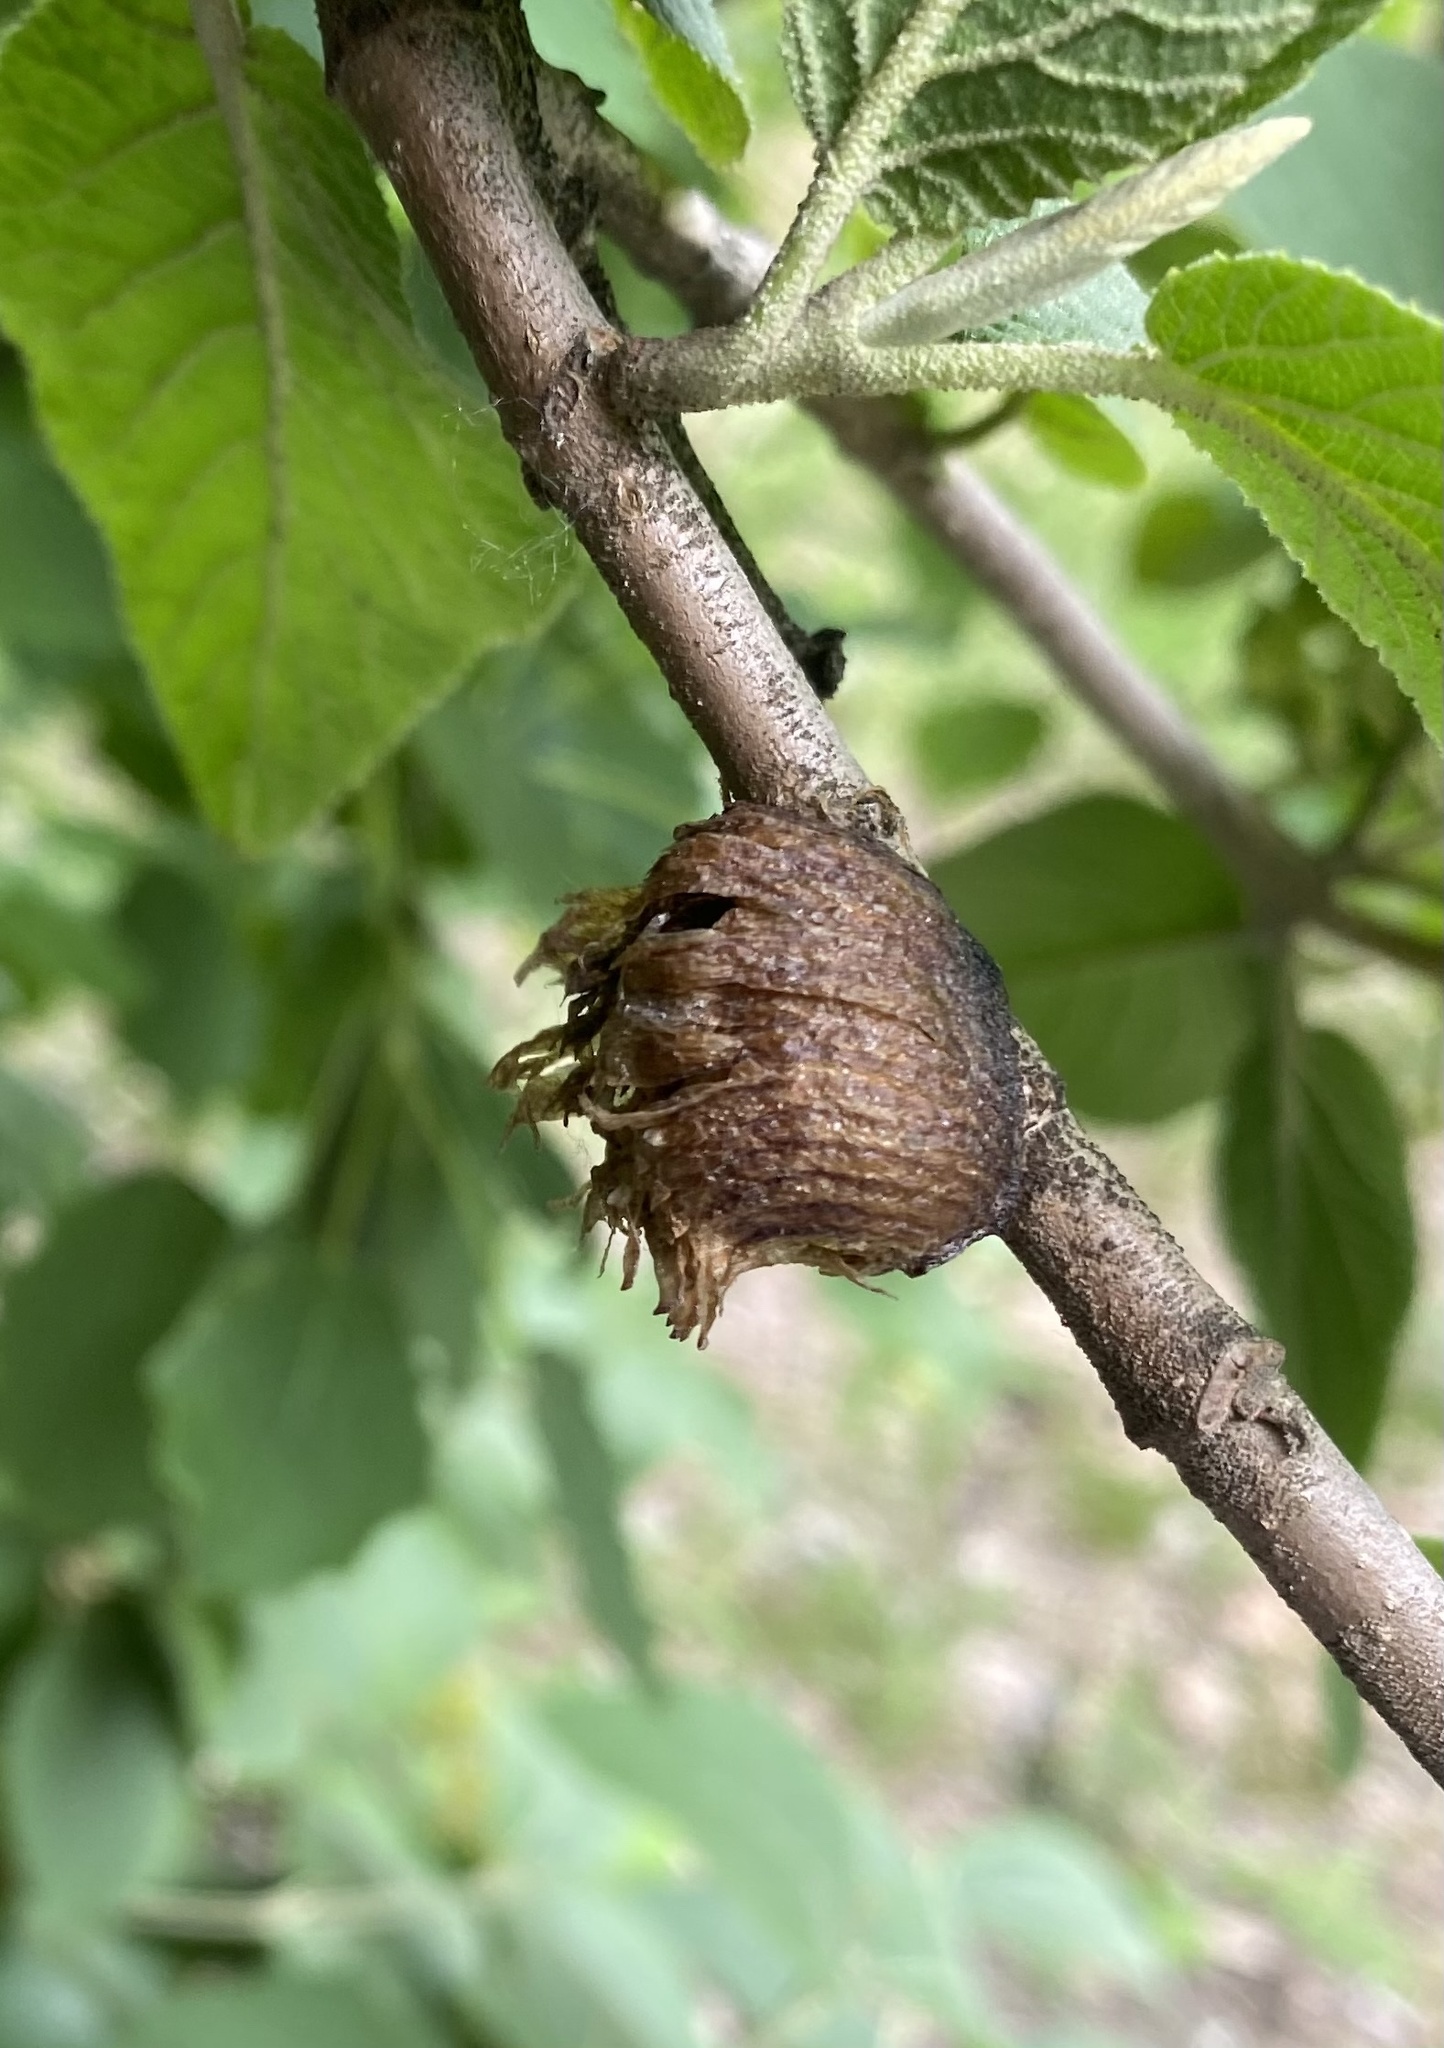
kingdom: Animalia
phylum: Arthropoda
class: Insecta
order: Mantodea
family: Mantidae
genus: Hierodula
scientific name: Hierodula transcaucasica
